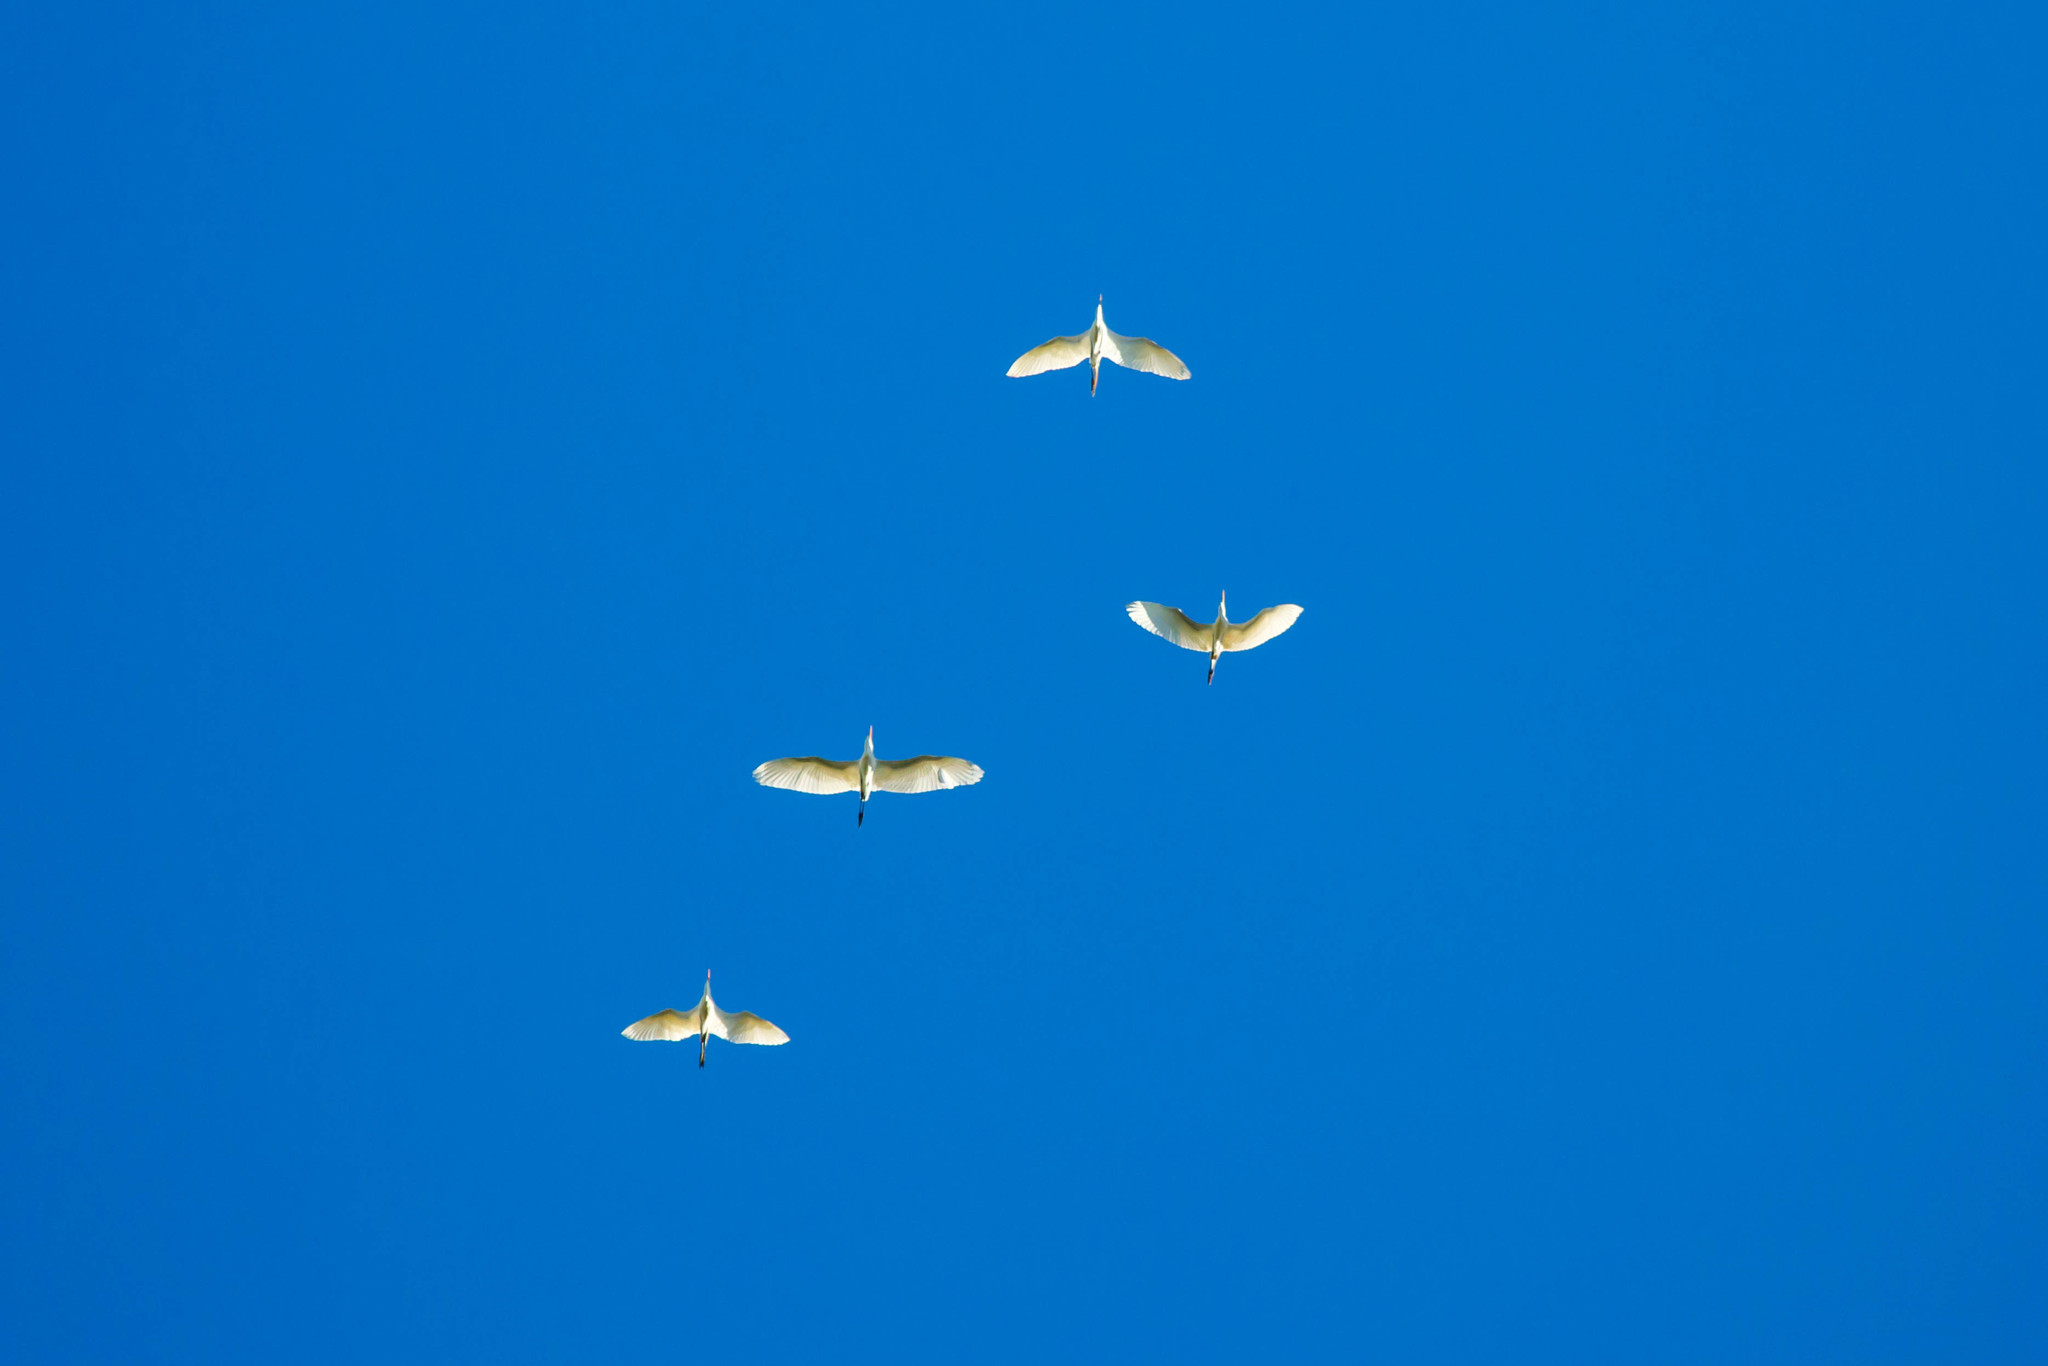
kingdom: Animalia
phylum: Chordata
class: Aves
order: Pelecaniformes
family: Ardeidae
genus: Ardea
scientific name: Ardea alba
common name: Great egret
